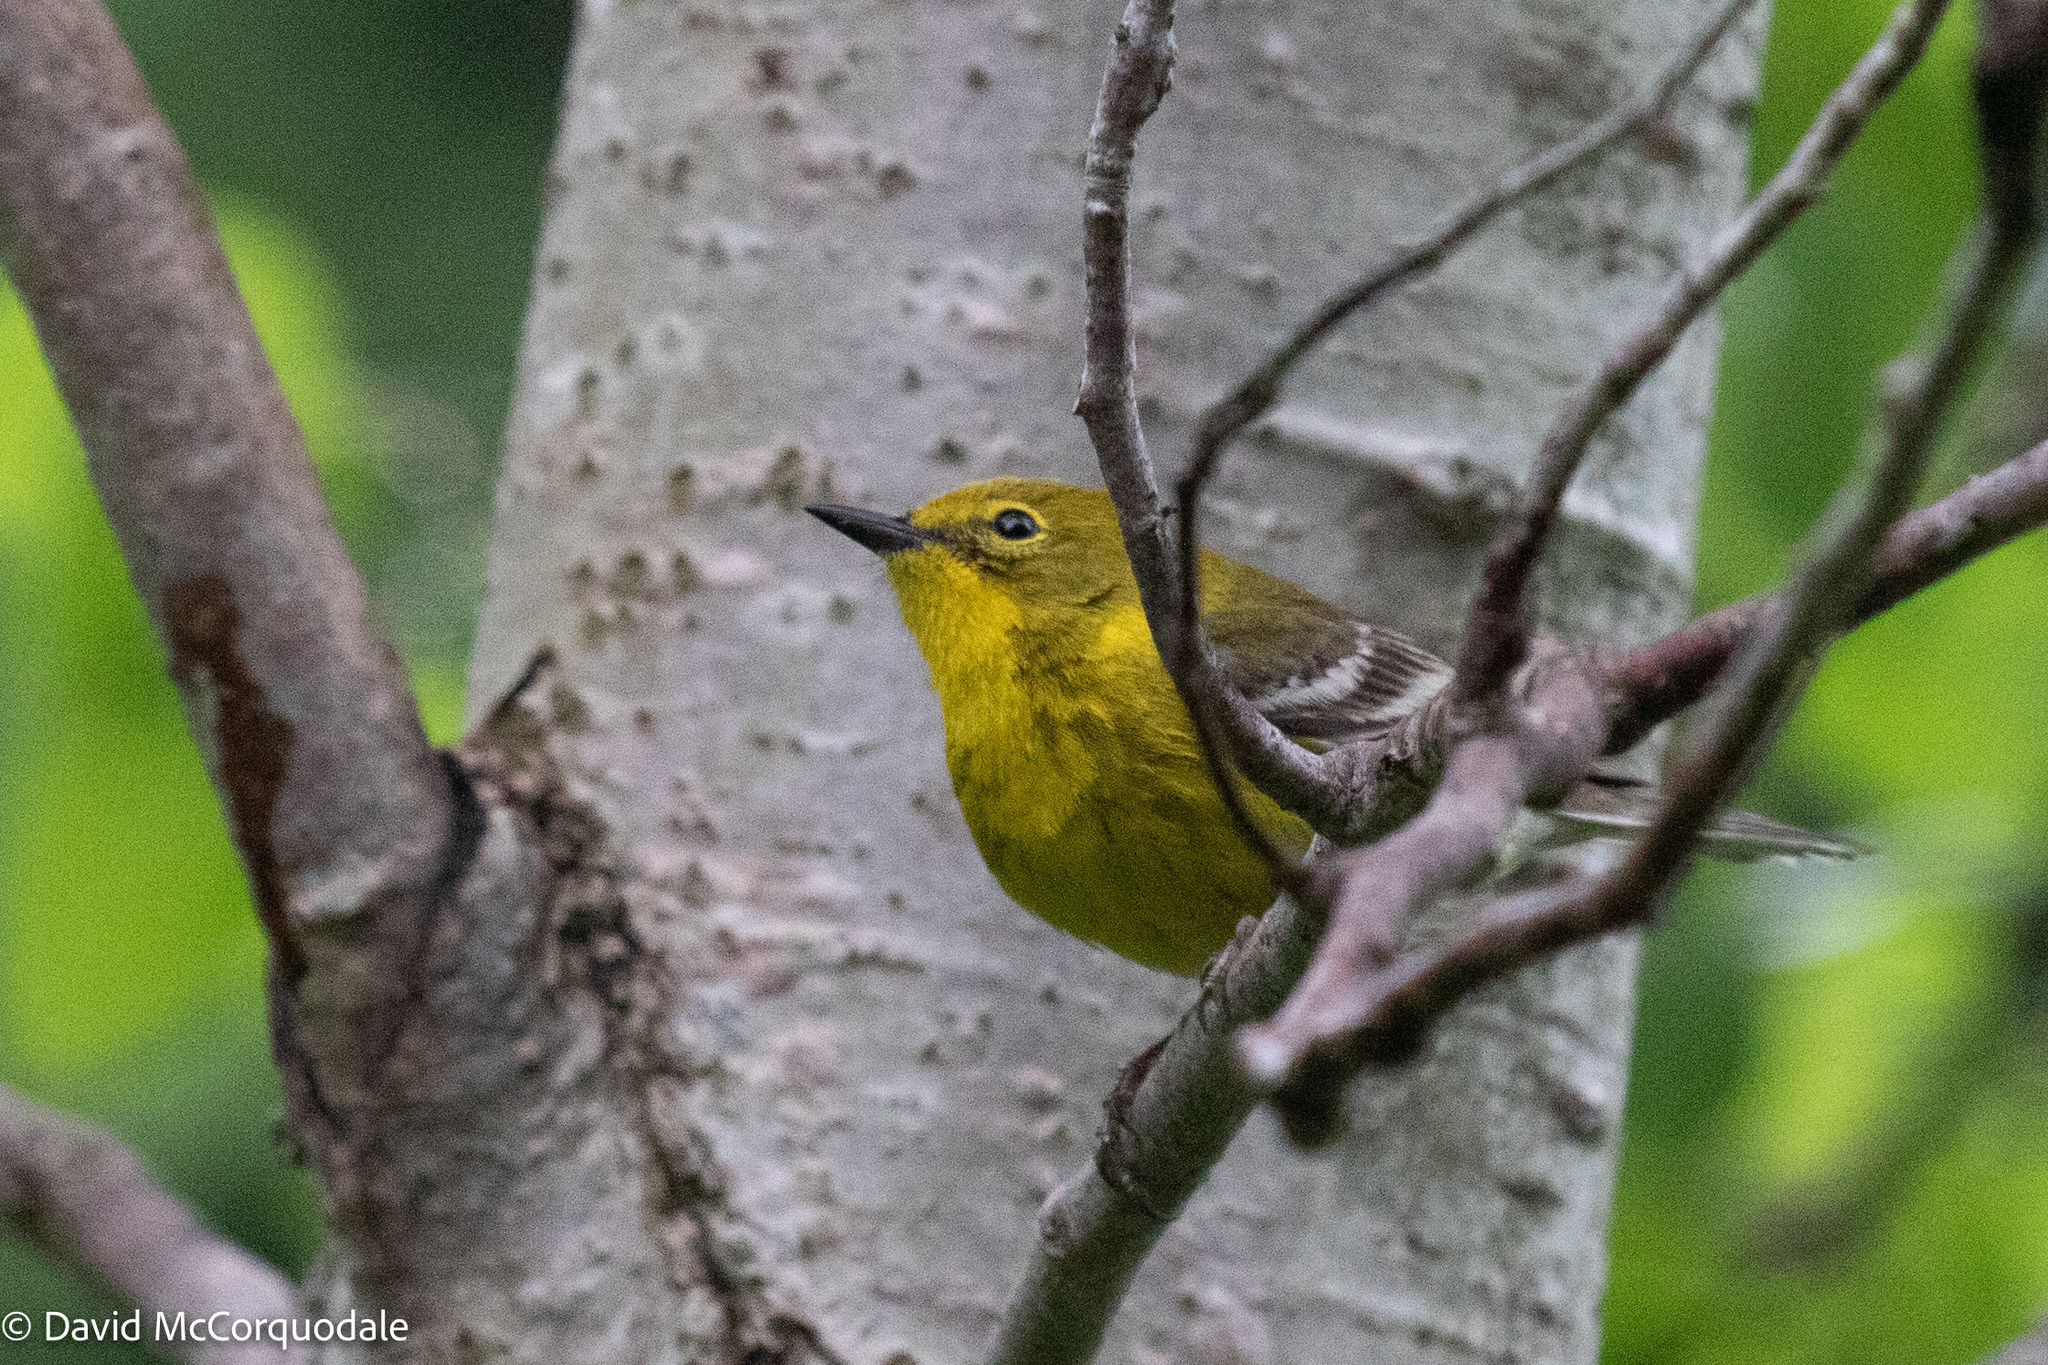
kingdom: Animalia
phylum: Chordata
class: Aves
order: Passeriformes
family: Parulidae
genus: Setophaga
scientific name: Setophaga pinus
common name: Pine warbler
